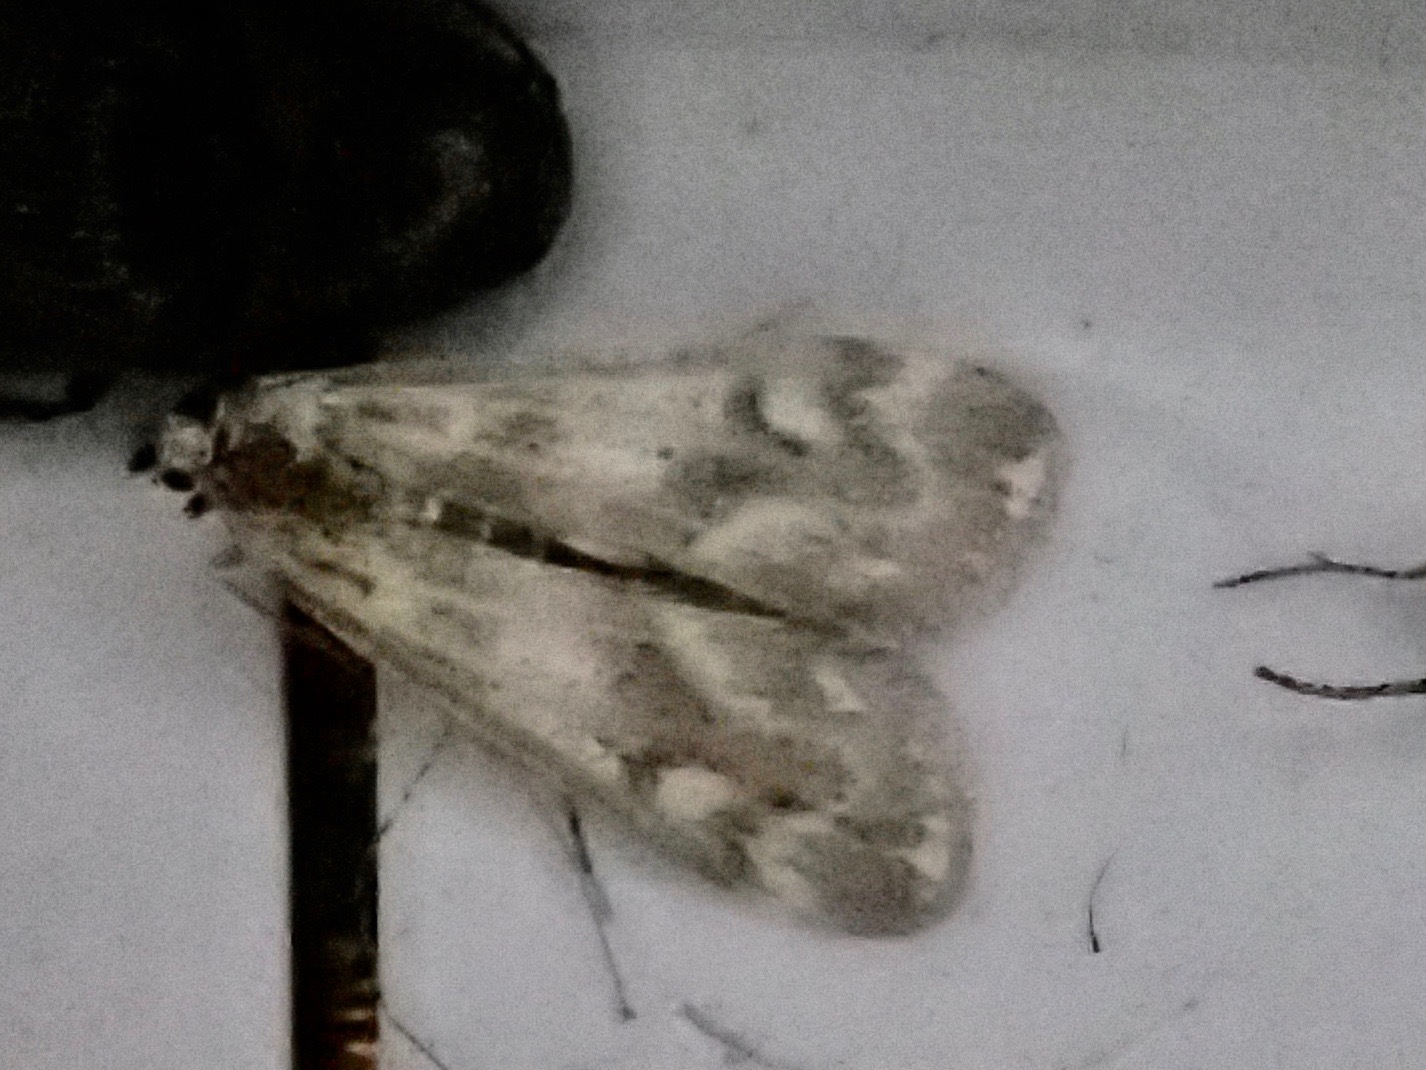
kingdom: Animalia
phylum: Arthropoda
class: Insecta
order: Lepidoptera
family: Crambidae
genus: Hygraula
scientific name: Hygraula nitens
